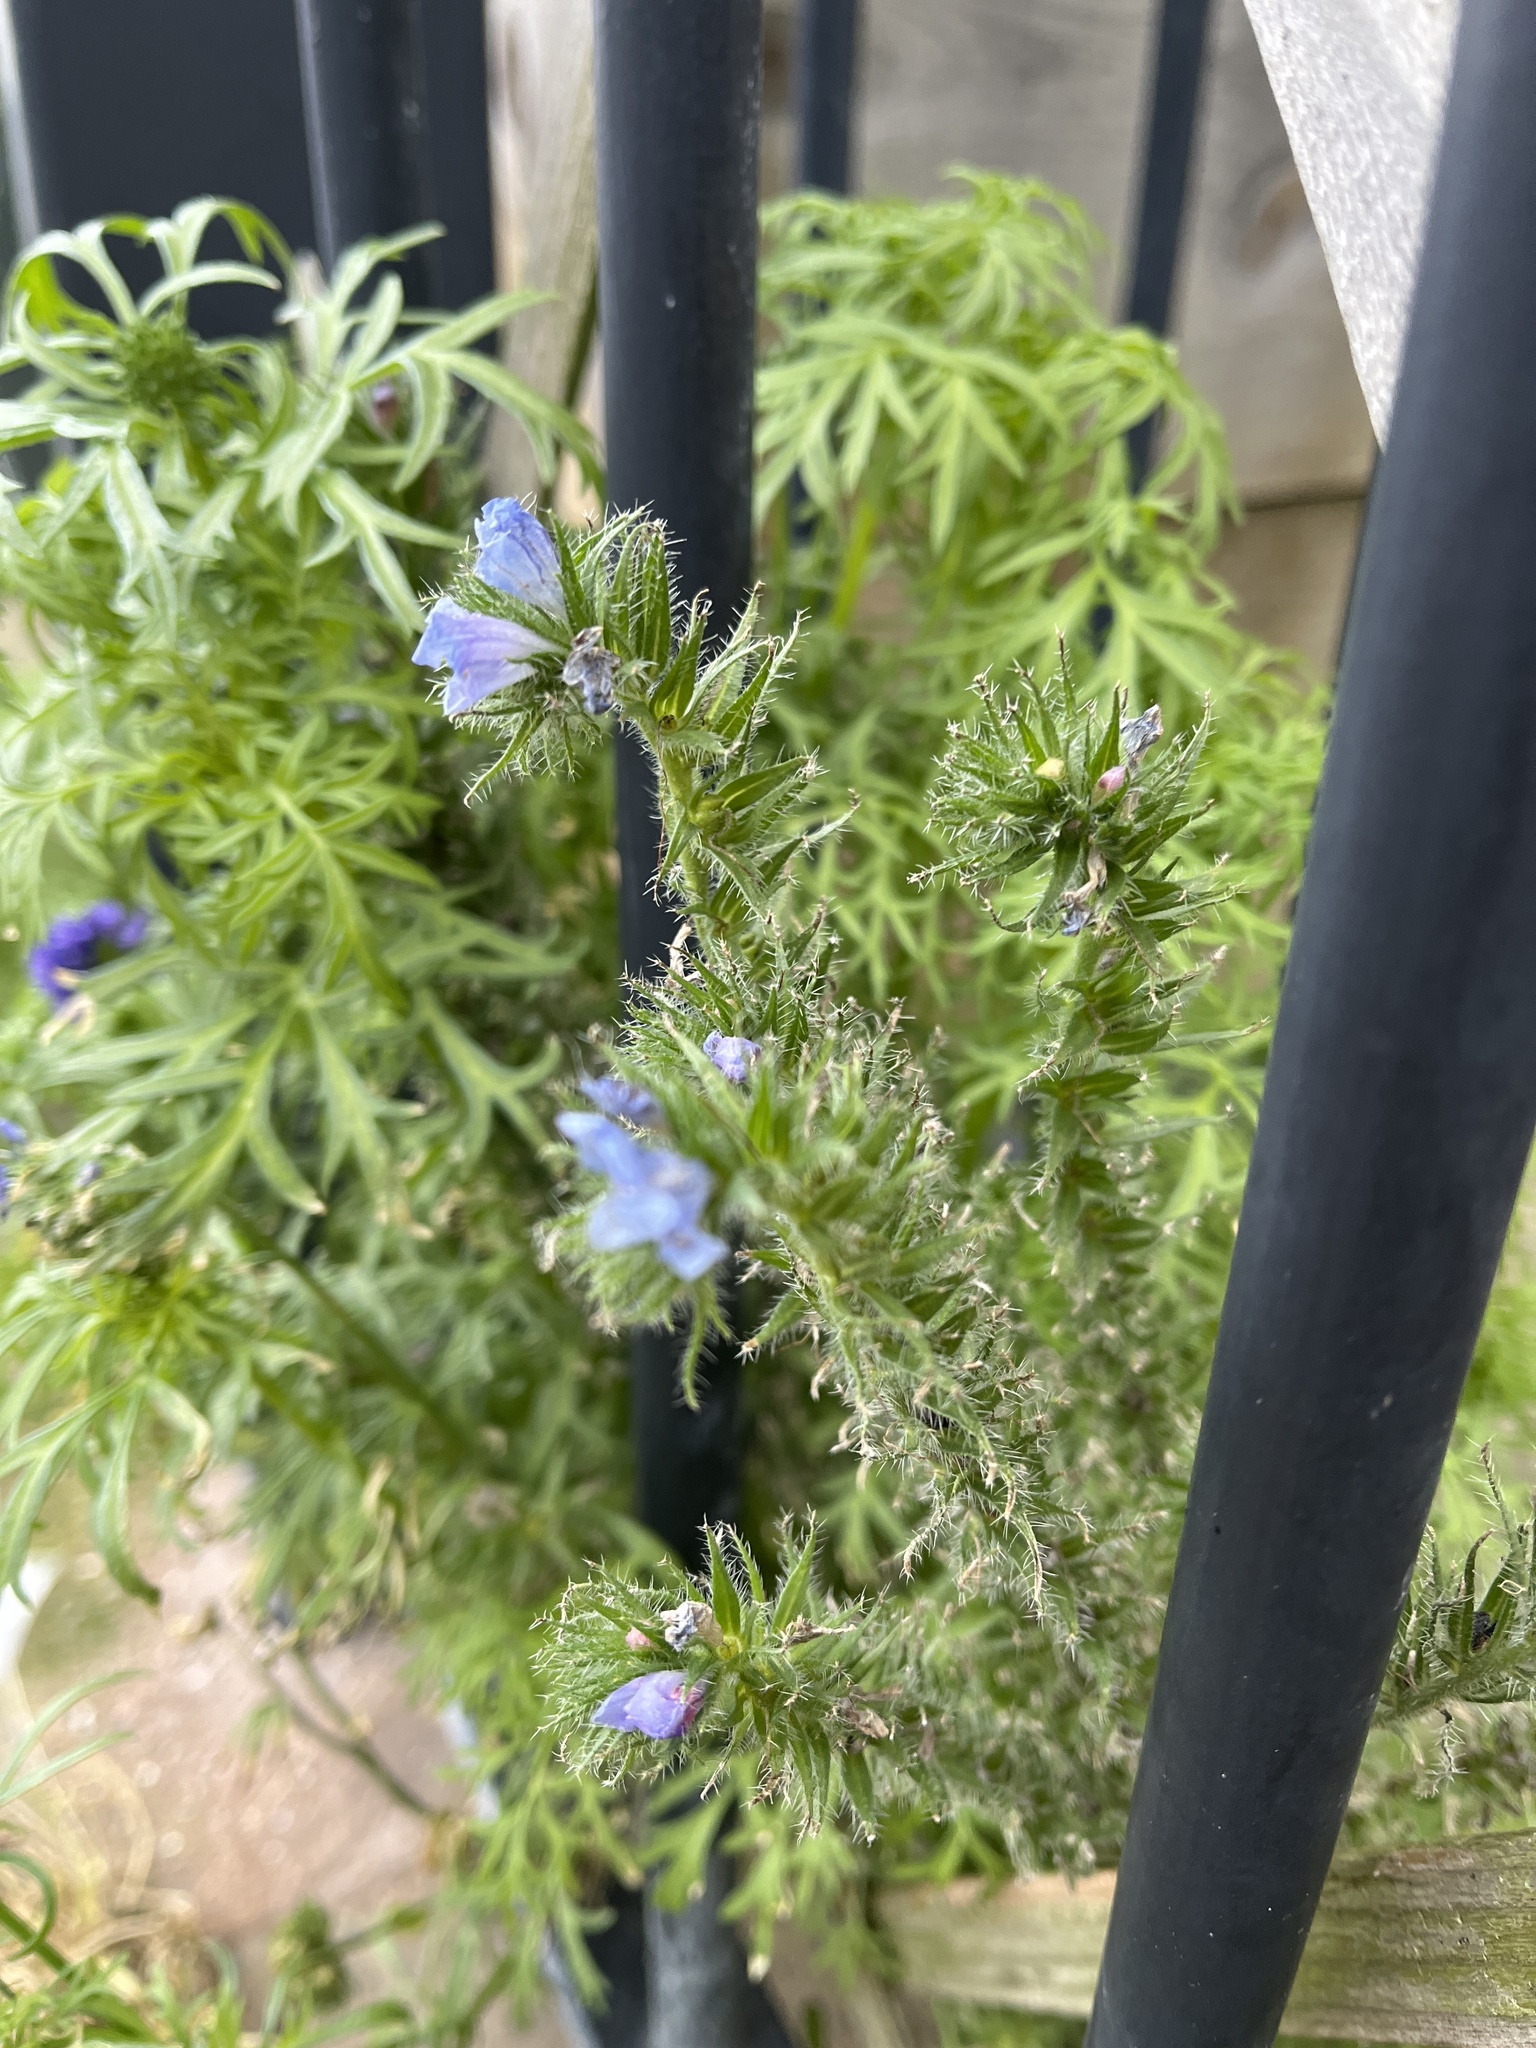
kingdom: Plantae
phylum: Tracheophyta
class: Magnoliopsida
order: Boraginales
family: Boraginaceae
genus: Echium
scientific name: Echium plantagineum
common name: Purple viper's-bugloss
